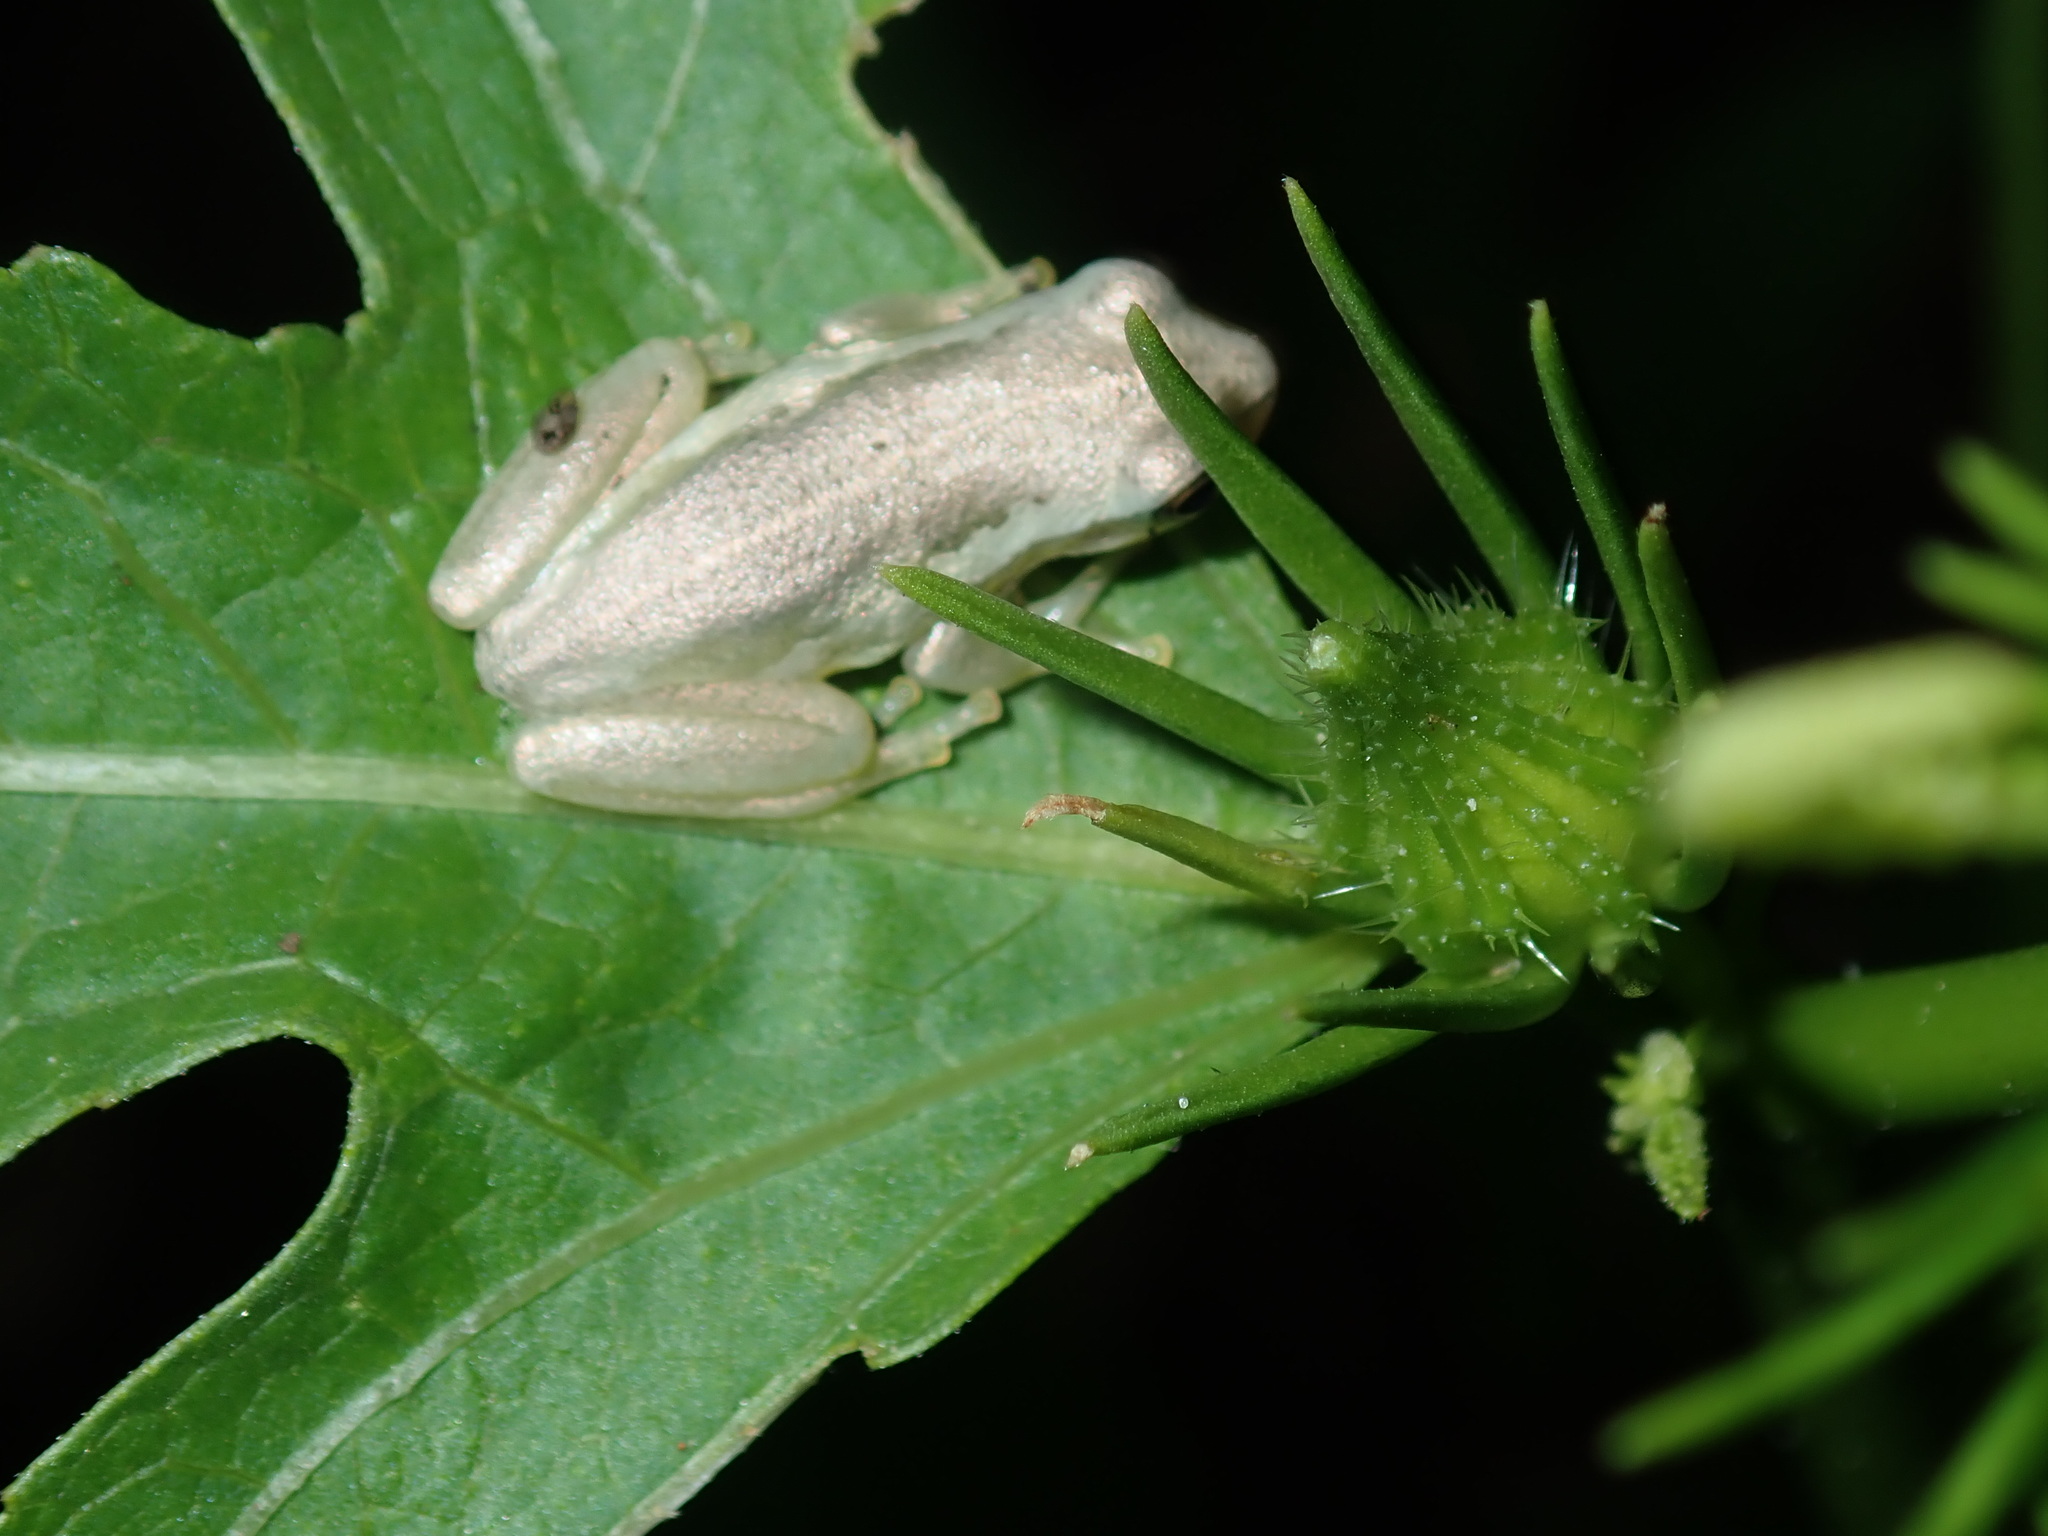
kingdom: Animalia
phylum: Chordata
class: Amphibia
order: Anura
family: Pelodryadidae
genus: Litoria
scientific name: Litoria rubella
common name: Desert tree frog
